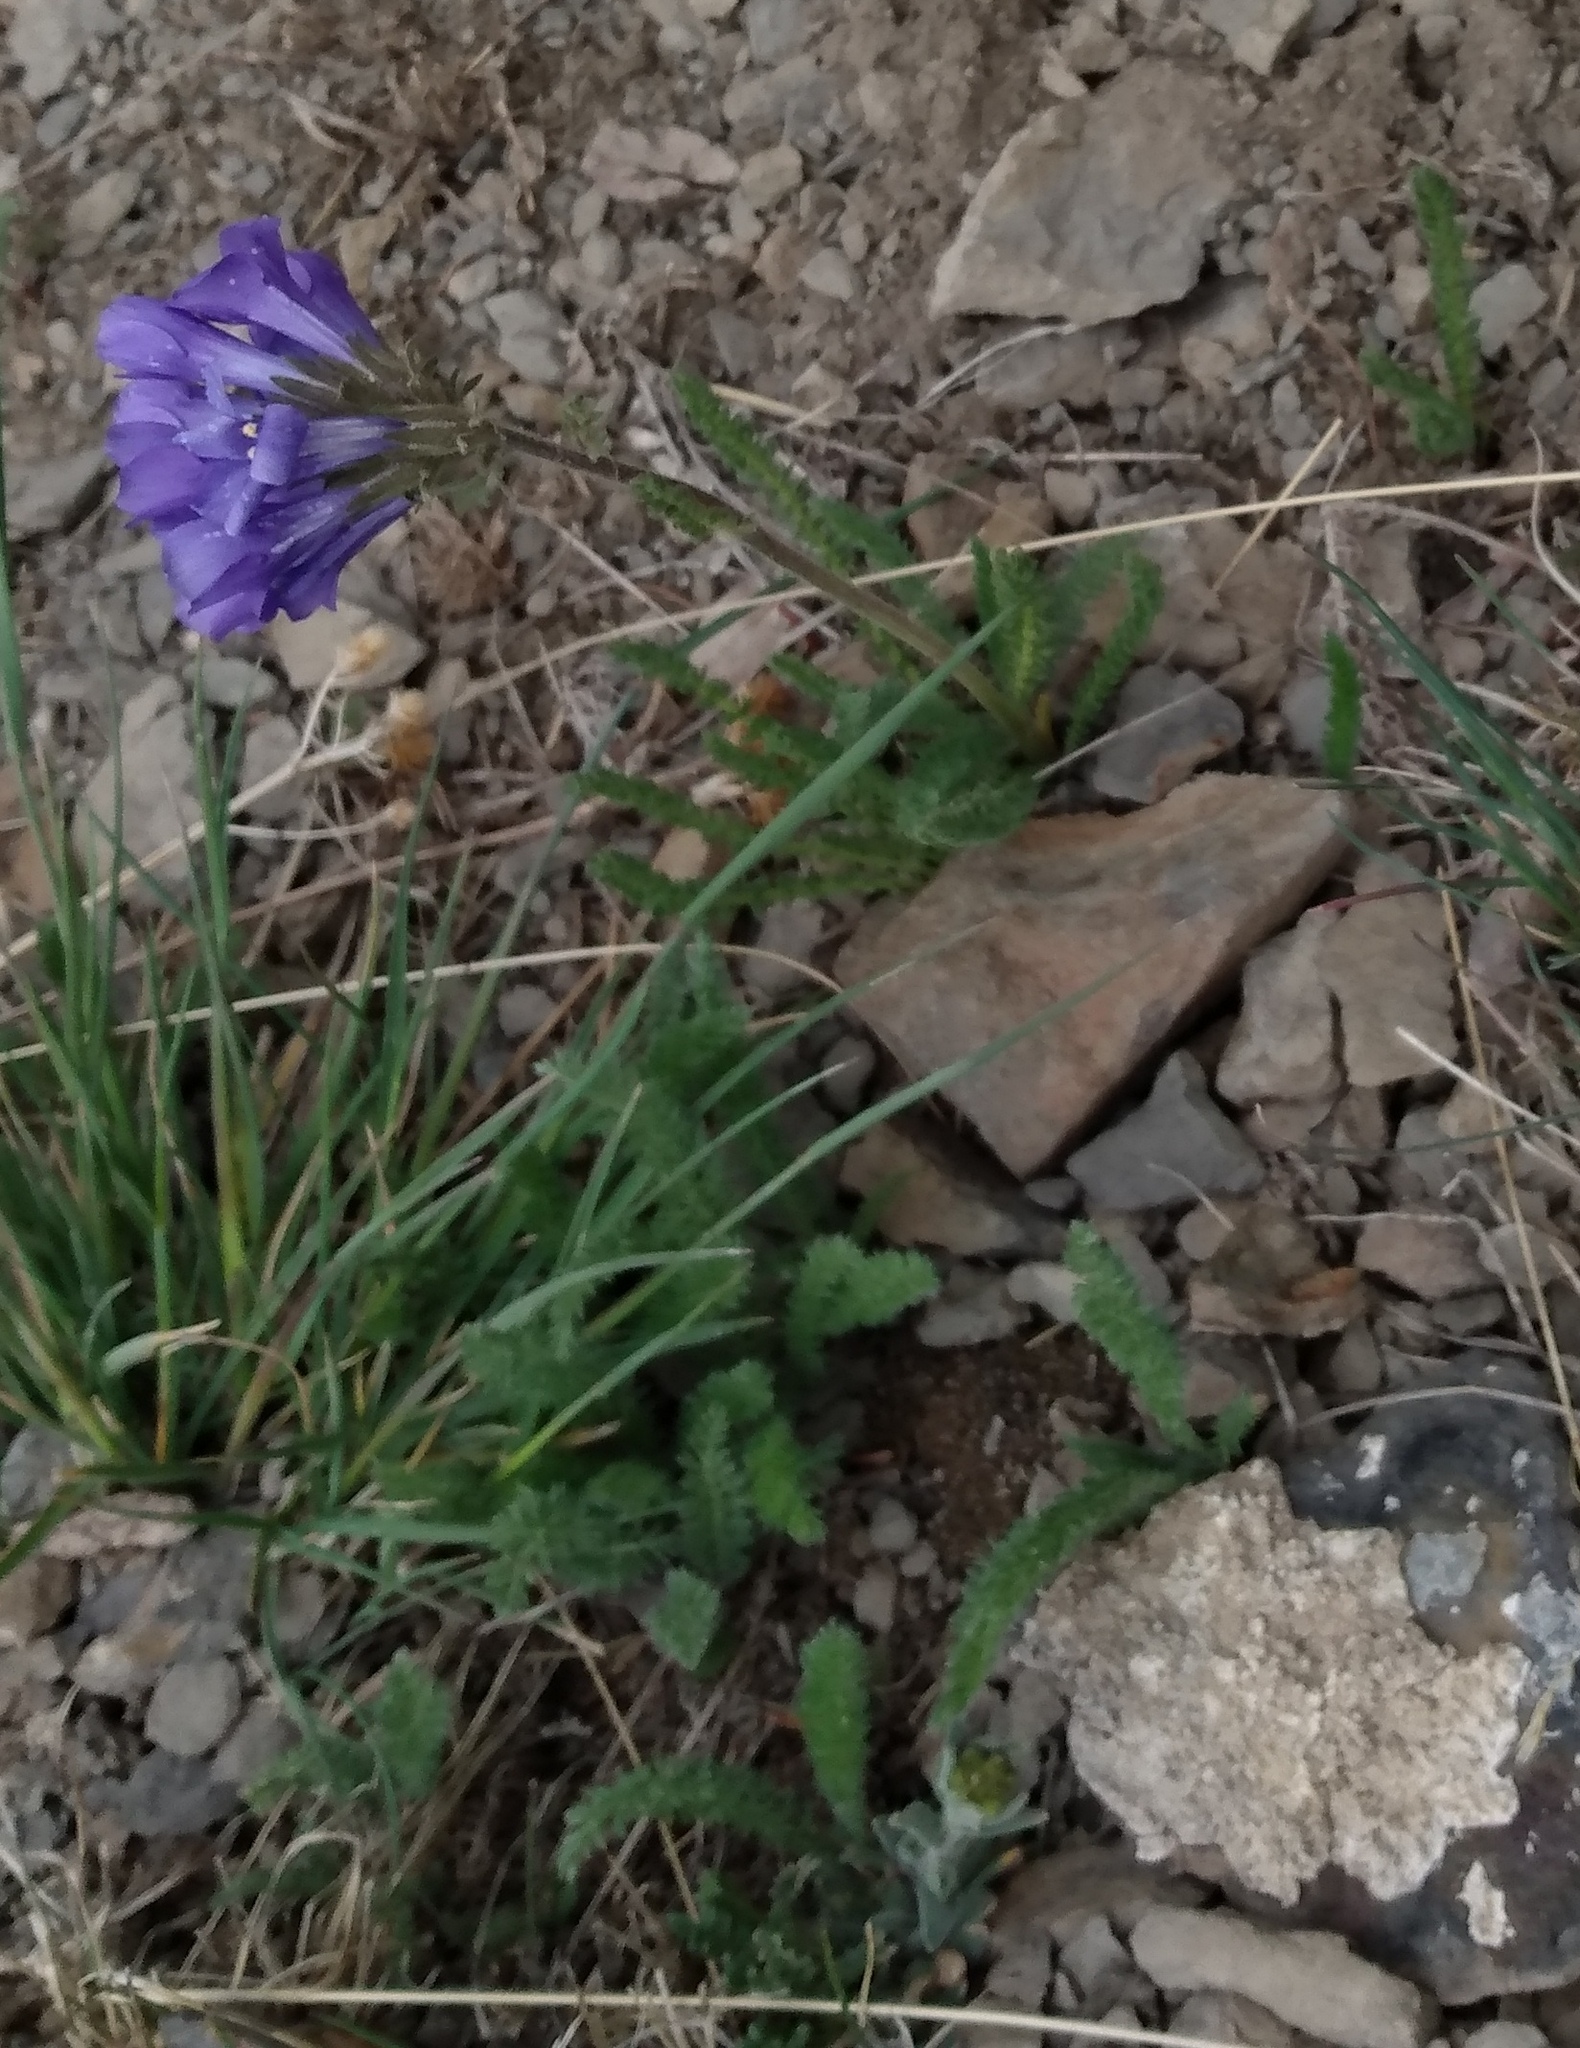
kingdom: Plantae
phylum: Tracheophyta
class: Magnoliopsida
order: Ericales
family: Polemoniaceae
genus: Polemonium
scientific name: Polemonium viscosum
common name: Skunk jacob's-ladder
